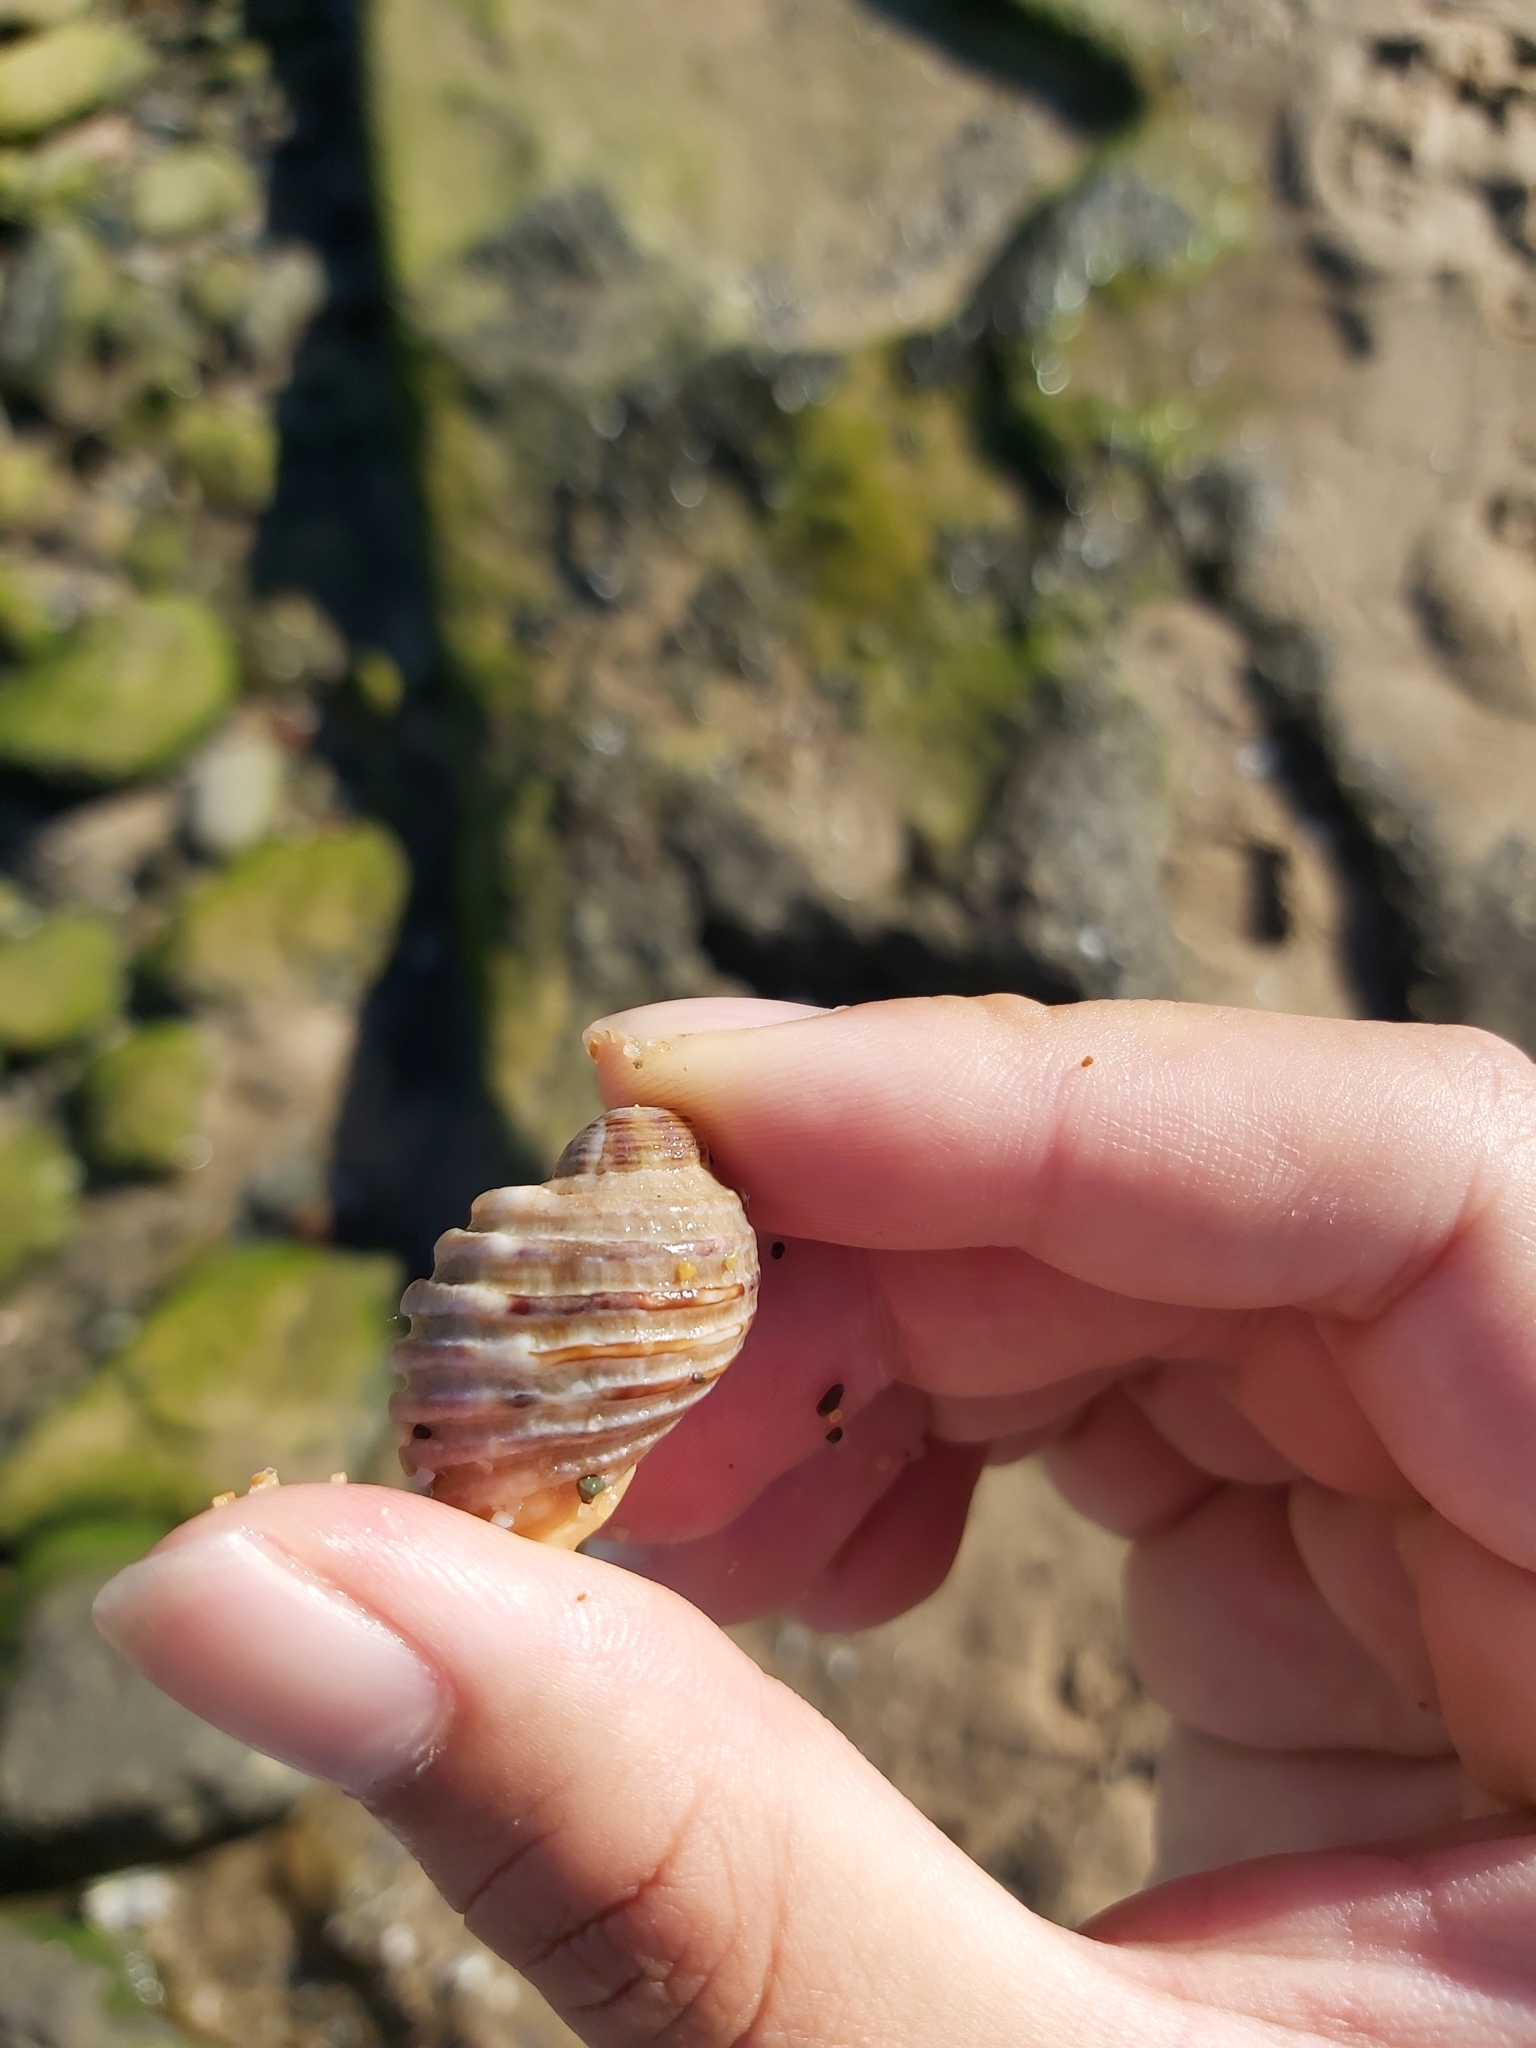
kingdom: Animalia
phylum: Mollusca
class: Gastropoda
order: Neogastropoda
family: Muricidae
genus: Dicathais
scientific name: Dicathais orbita
